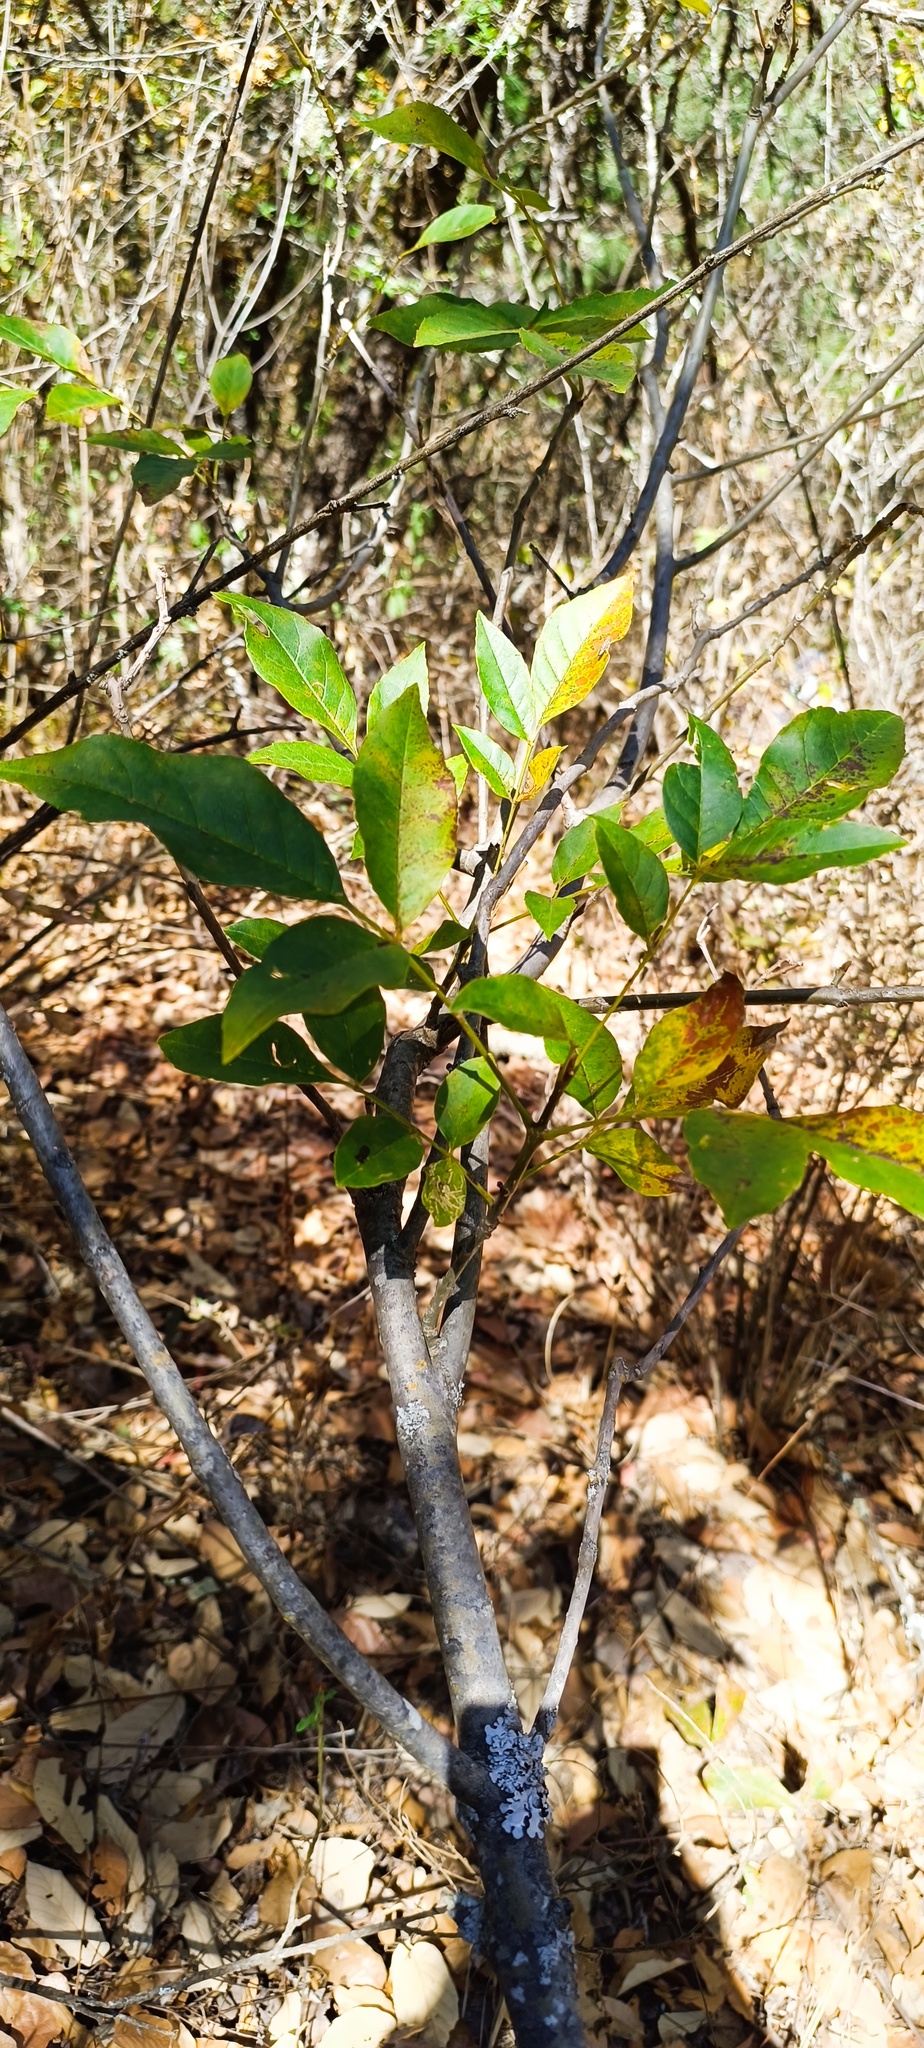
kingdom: Plantae
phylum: Tracheophyta
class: Magnoliopsida
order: Lamiales
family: Oleaceae
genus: Fraxinus
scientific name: Fraxinus uhdei
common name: Shamel ash
